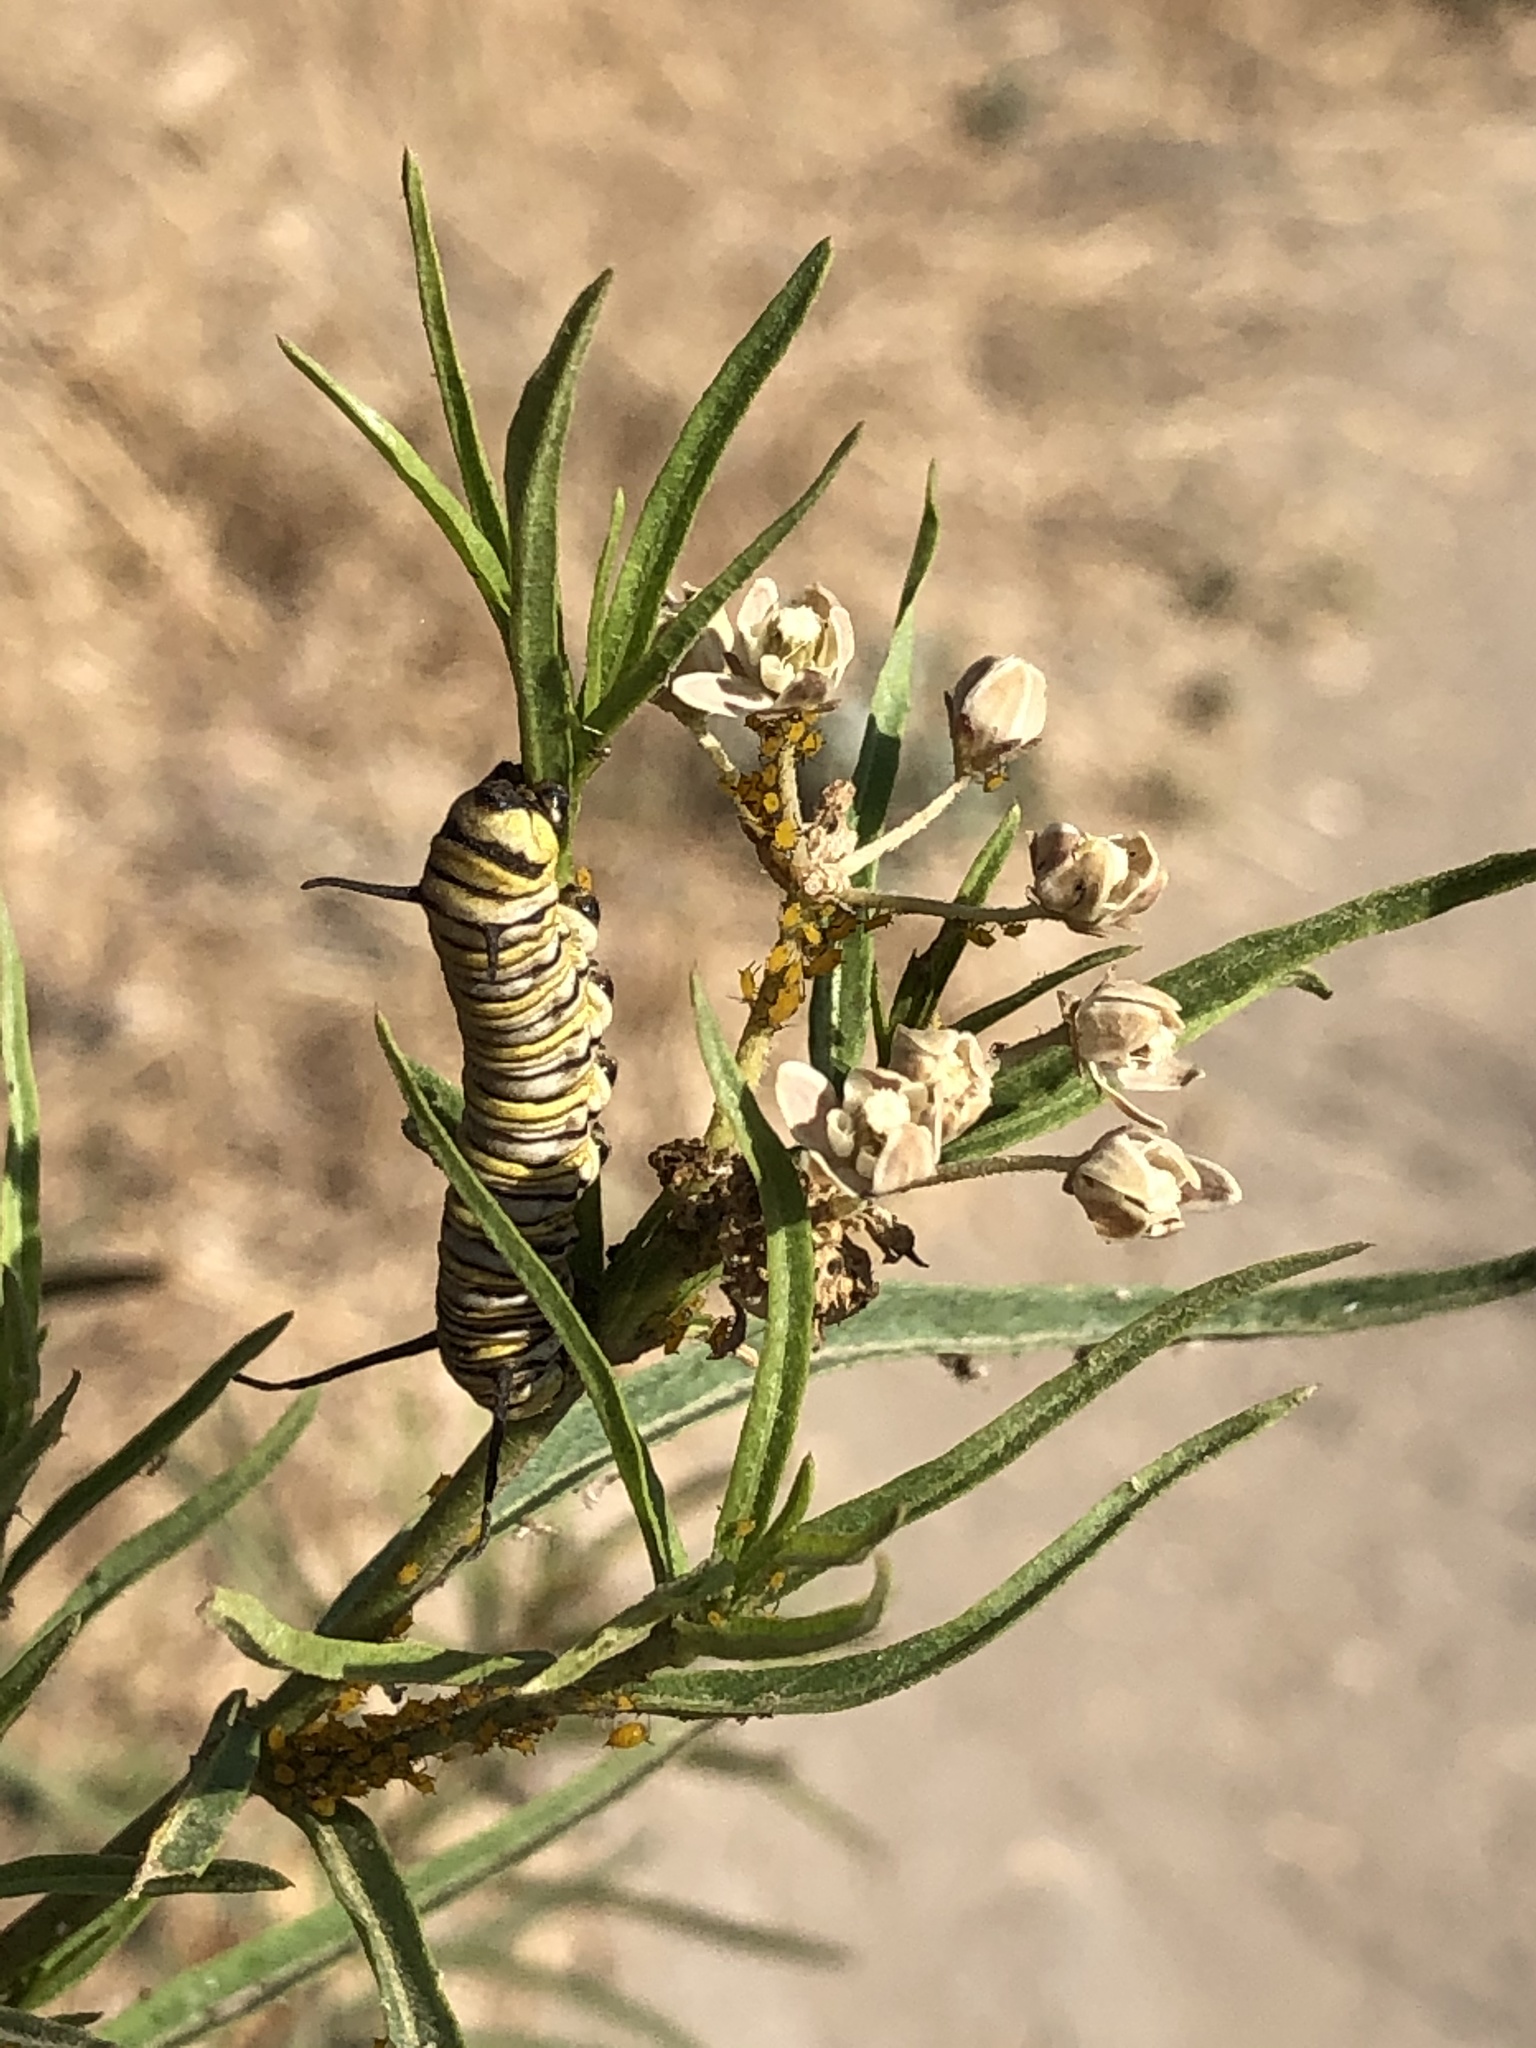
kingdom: Plantae
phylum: Tracheophyta
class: Magnoliopsida
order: Gentianales
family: Apocynaceae
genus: Asclepias
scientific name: Asclepias fascicularis
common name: Mexican milkweed
